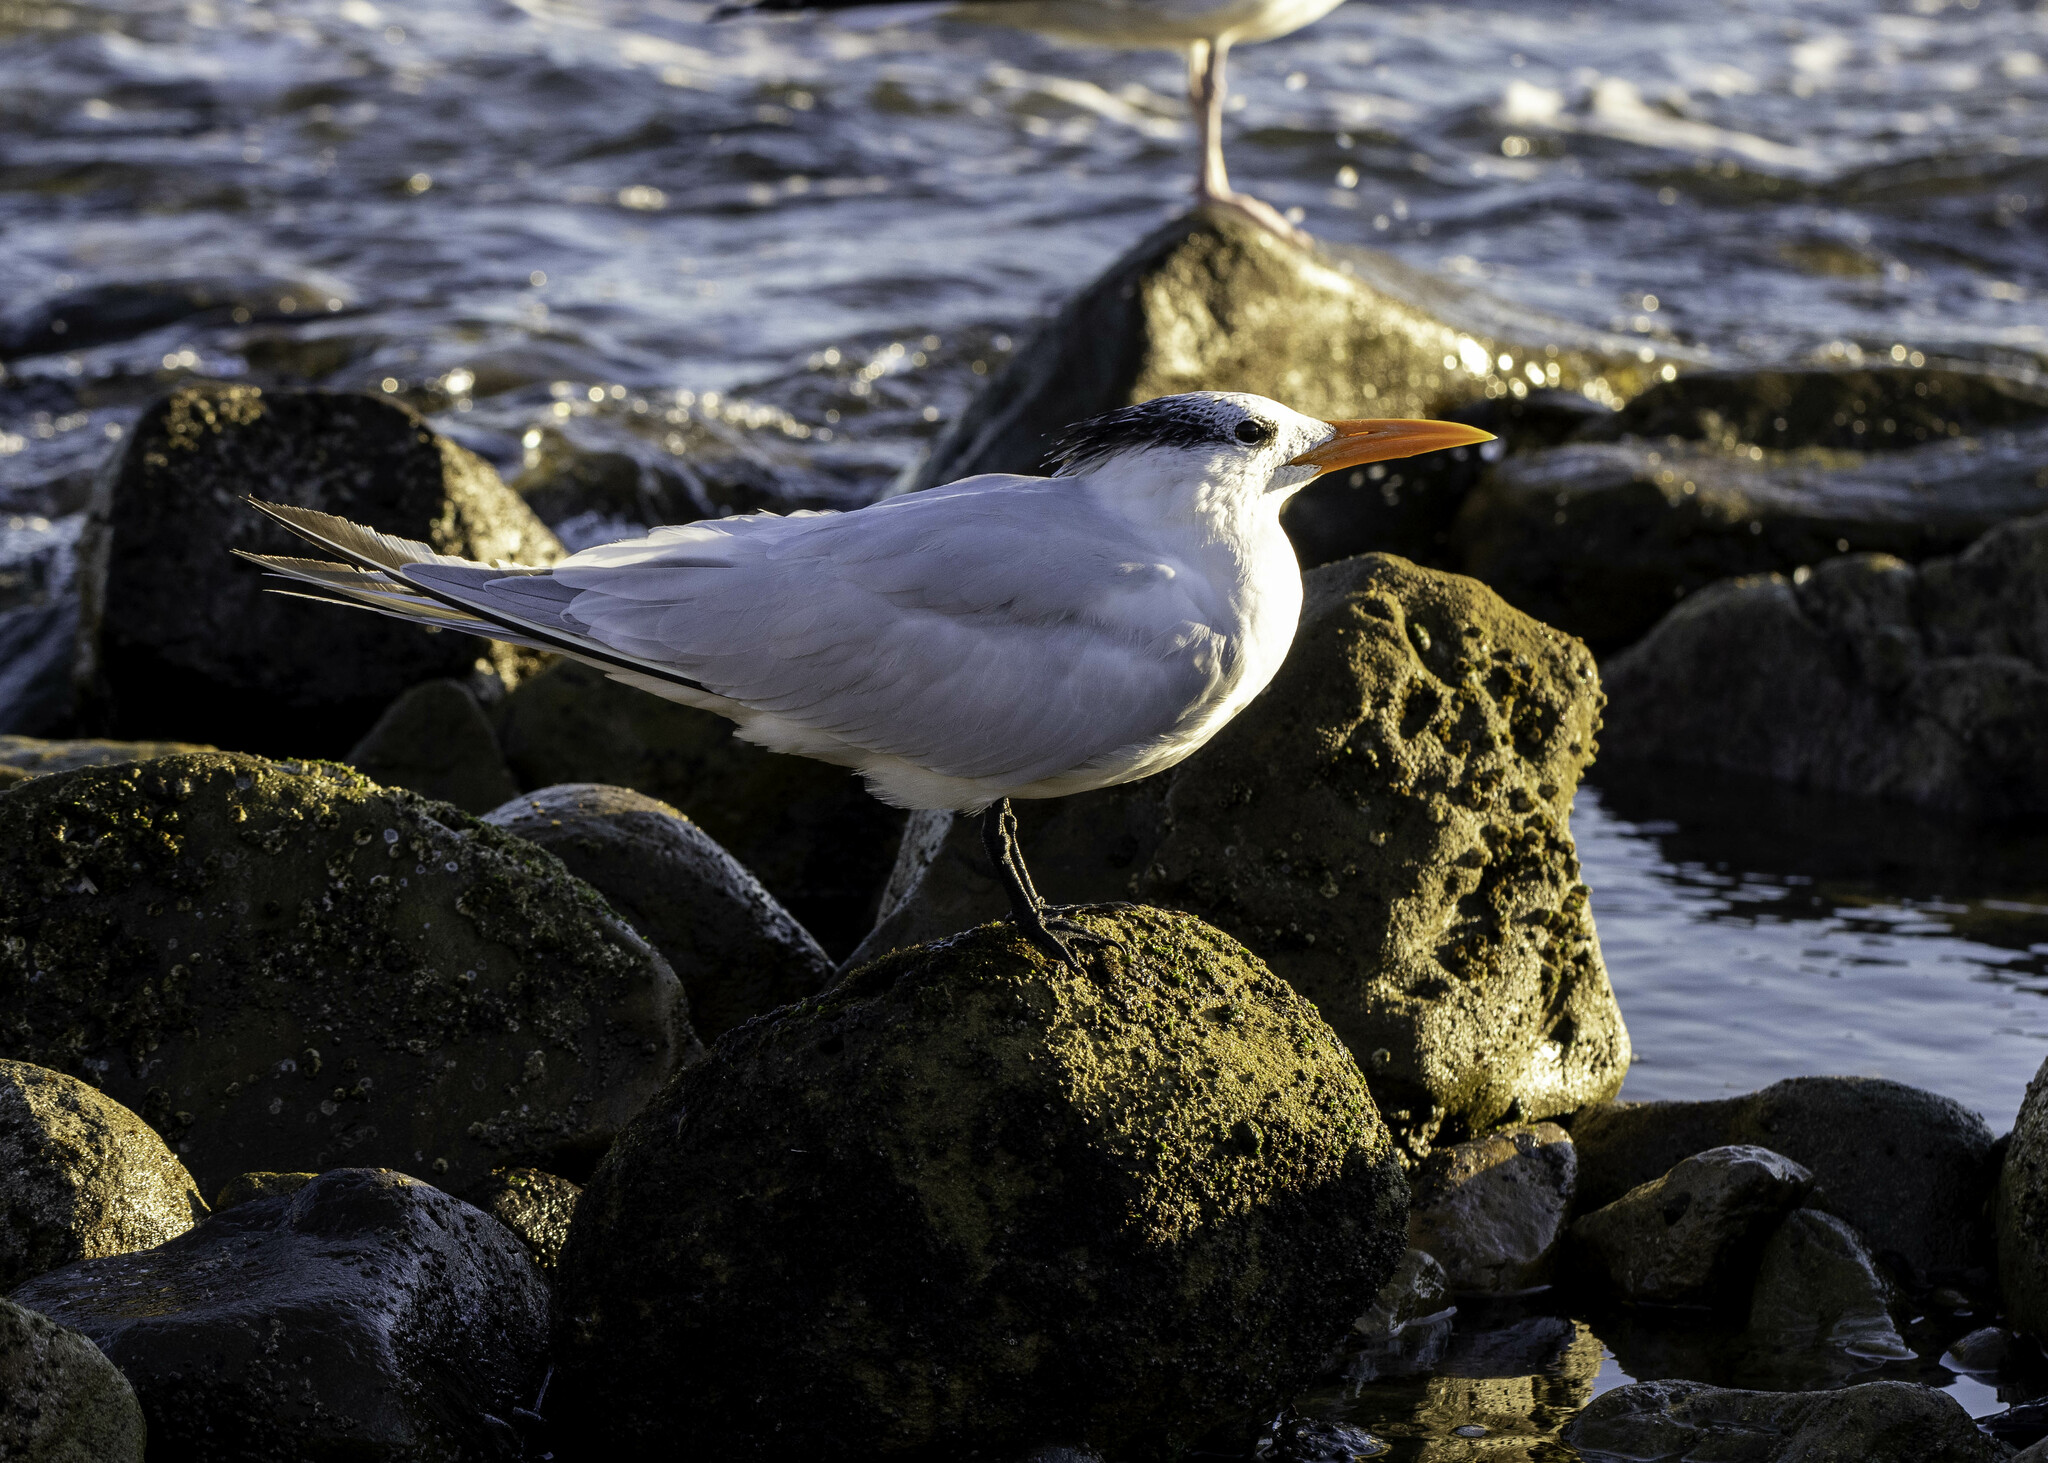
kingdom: Animalia
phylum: Chordata
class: Aves
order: Charadriiformes
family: Laridae
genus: Thalasseus
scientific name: Thalasseus maximus
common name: Royal tern
